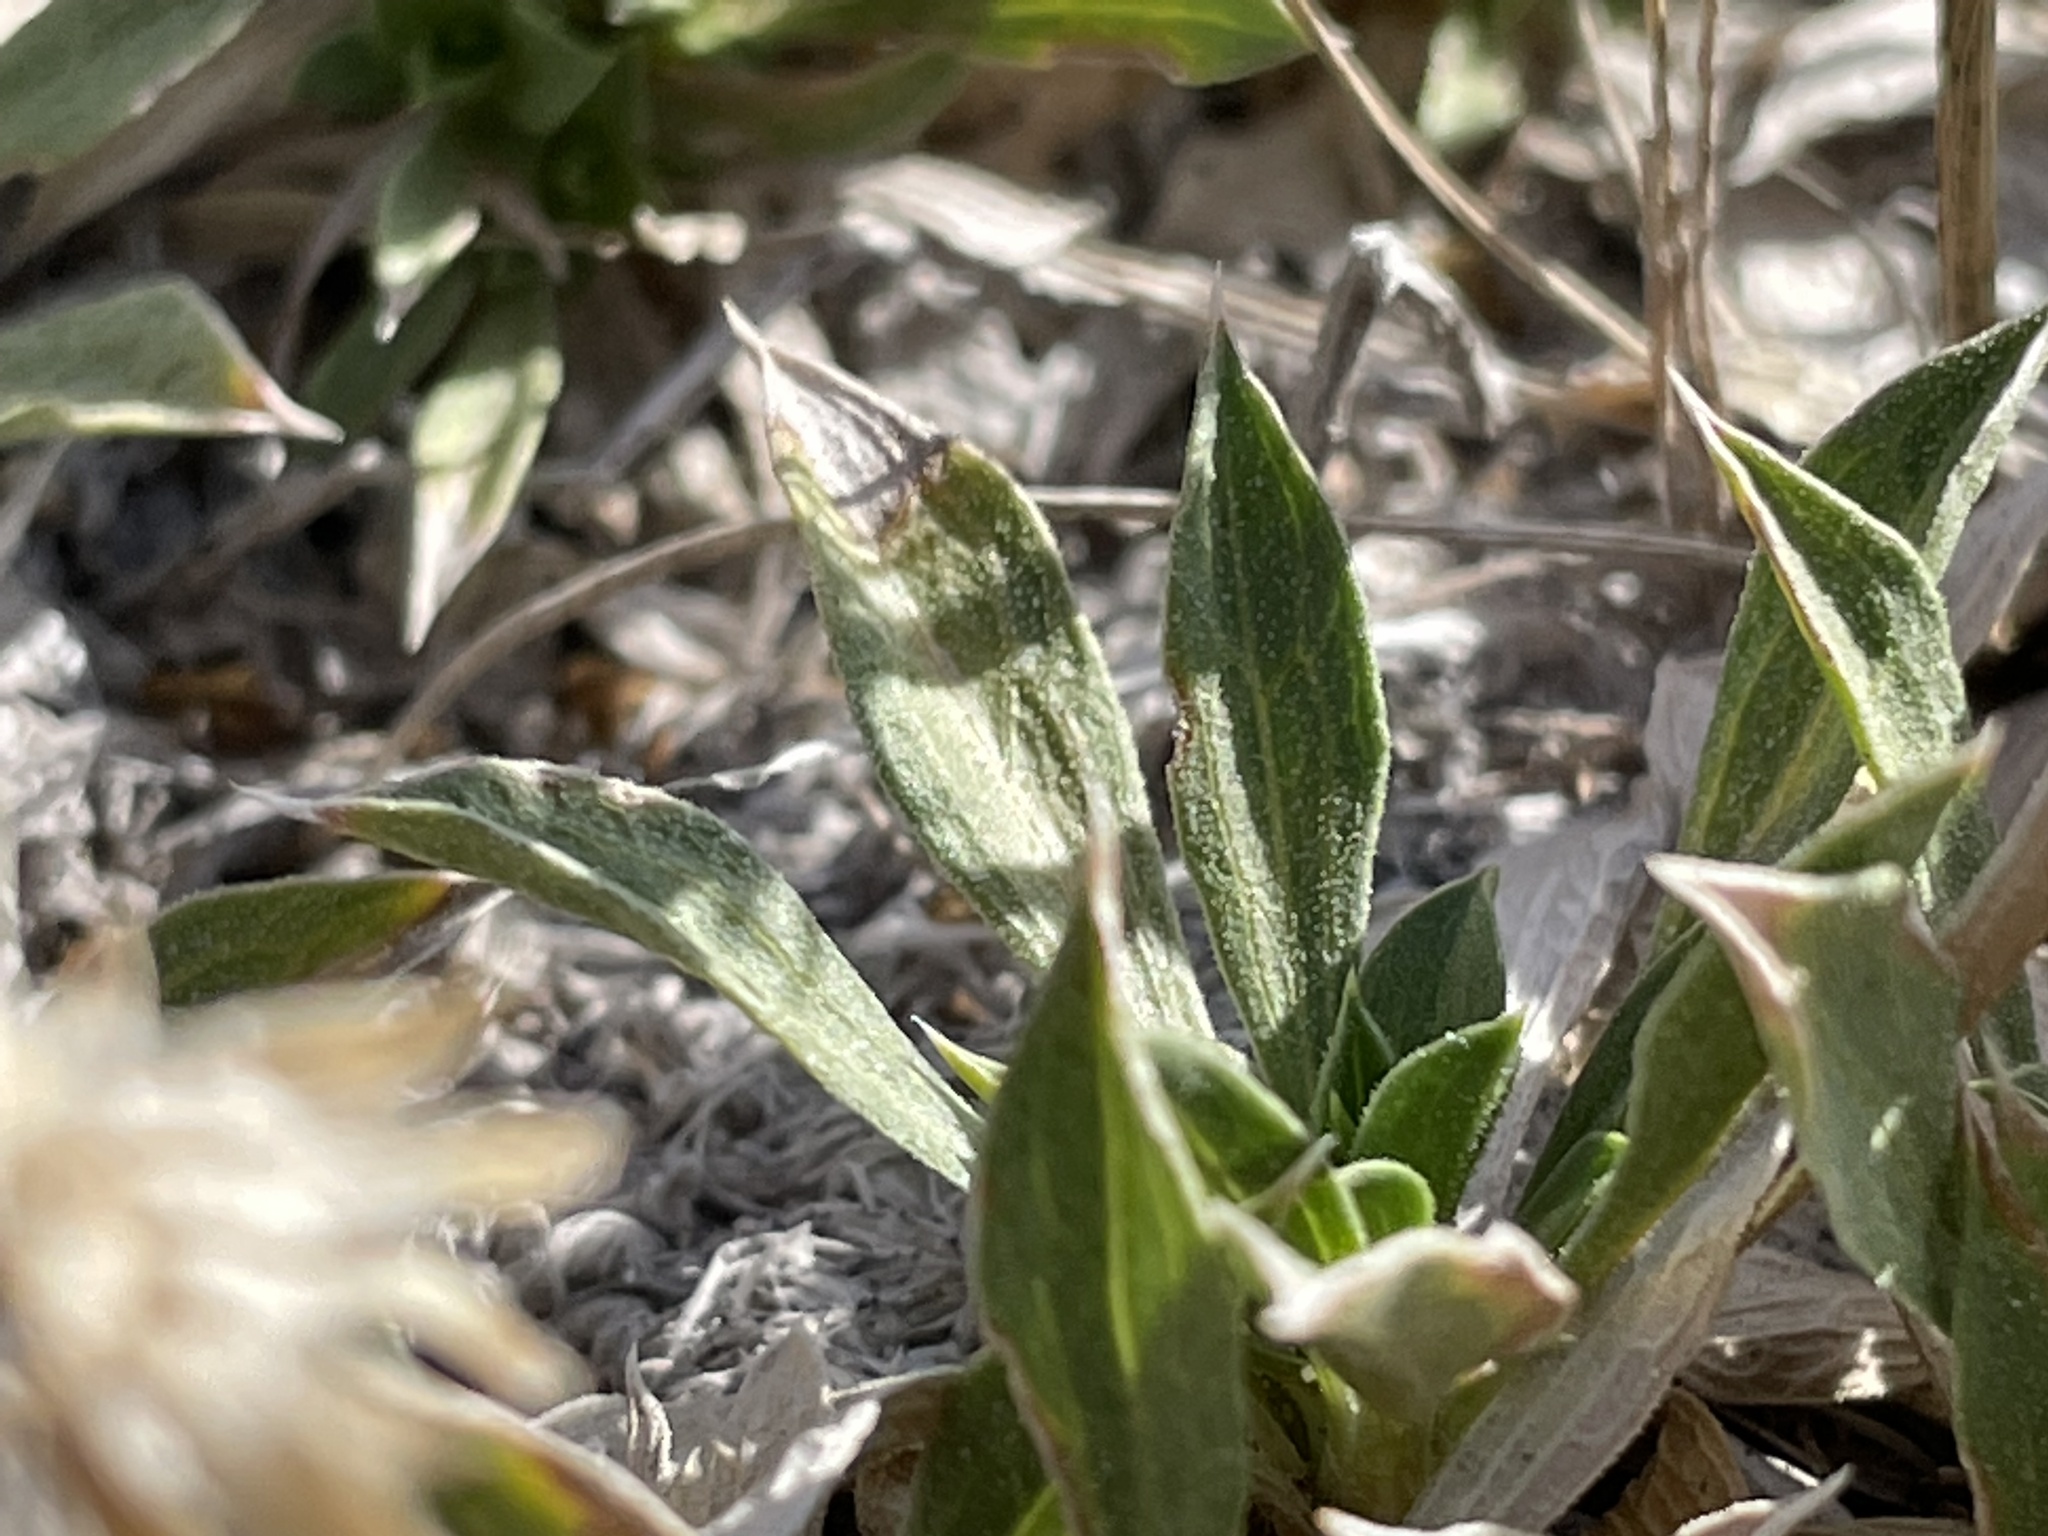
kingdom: Plantae
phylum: Tracheophyta
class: Magnoliopsida
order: Asterales
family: Asteraceae
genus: Stenotus
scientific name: Stenotus acaulis
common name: Stemless goldenweed
